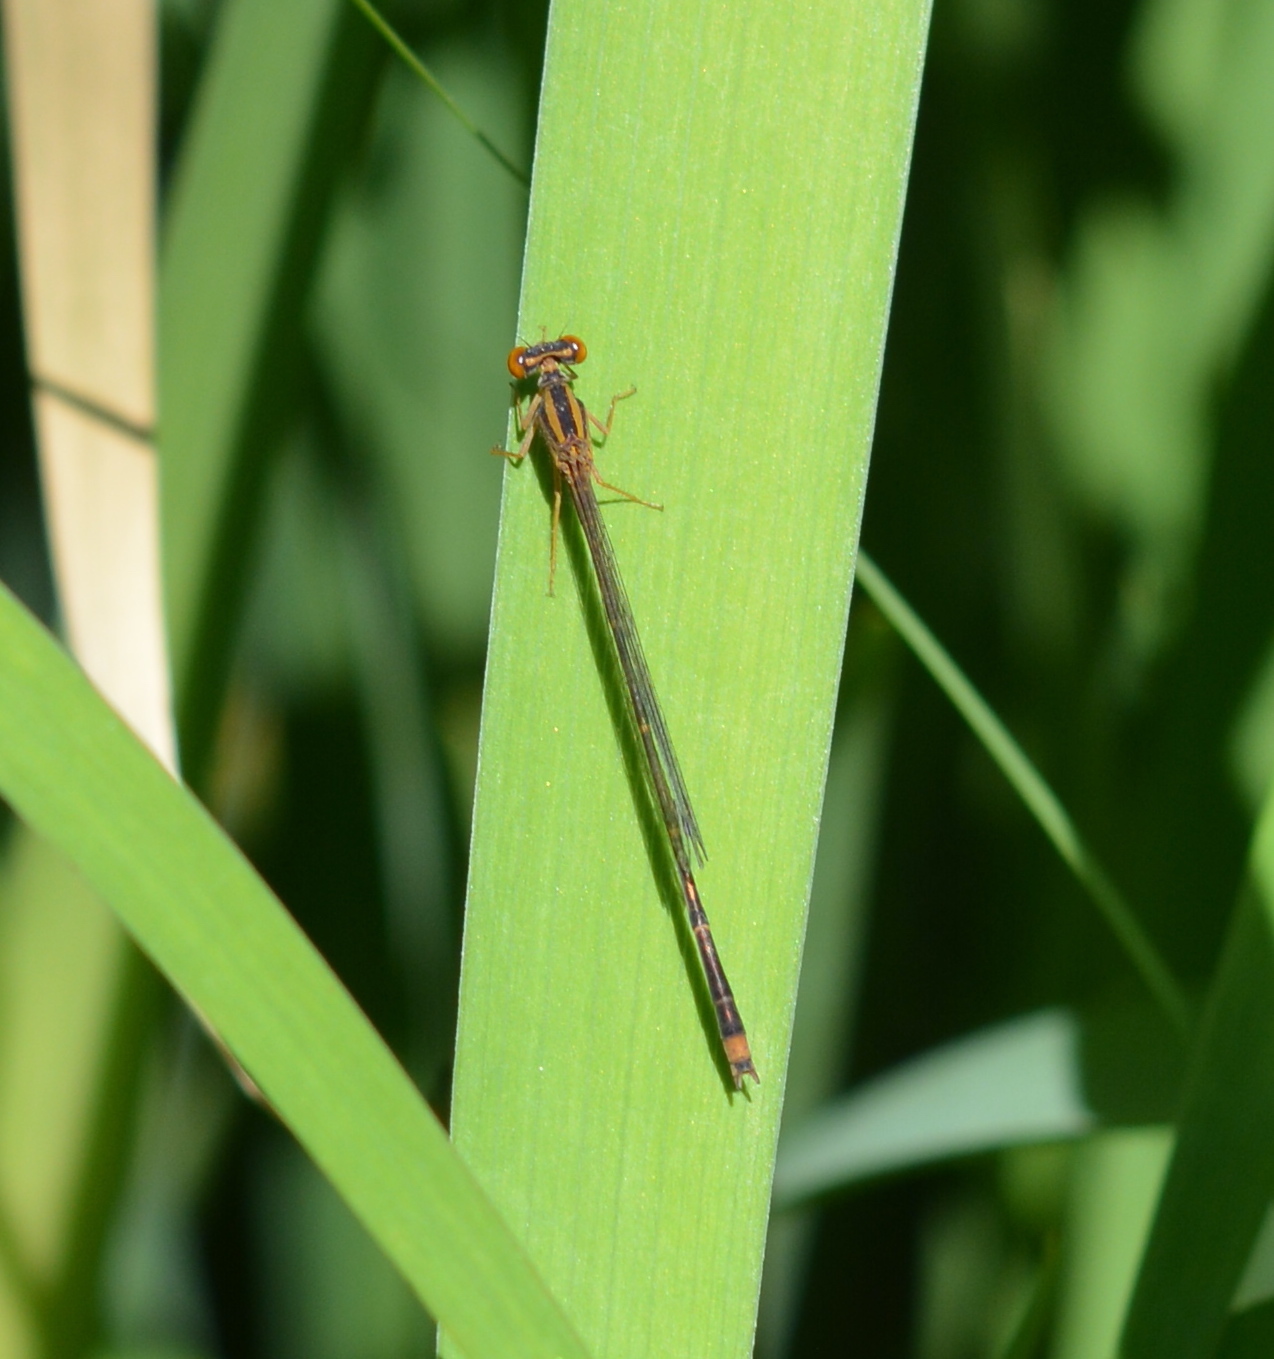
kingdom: Animalia
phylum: Arthropoda
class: Insecta
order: Odonata
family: Coenagrionidae
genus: Enallagma
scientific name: Enallagma signatum
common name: Orange bluet
